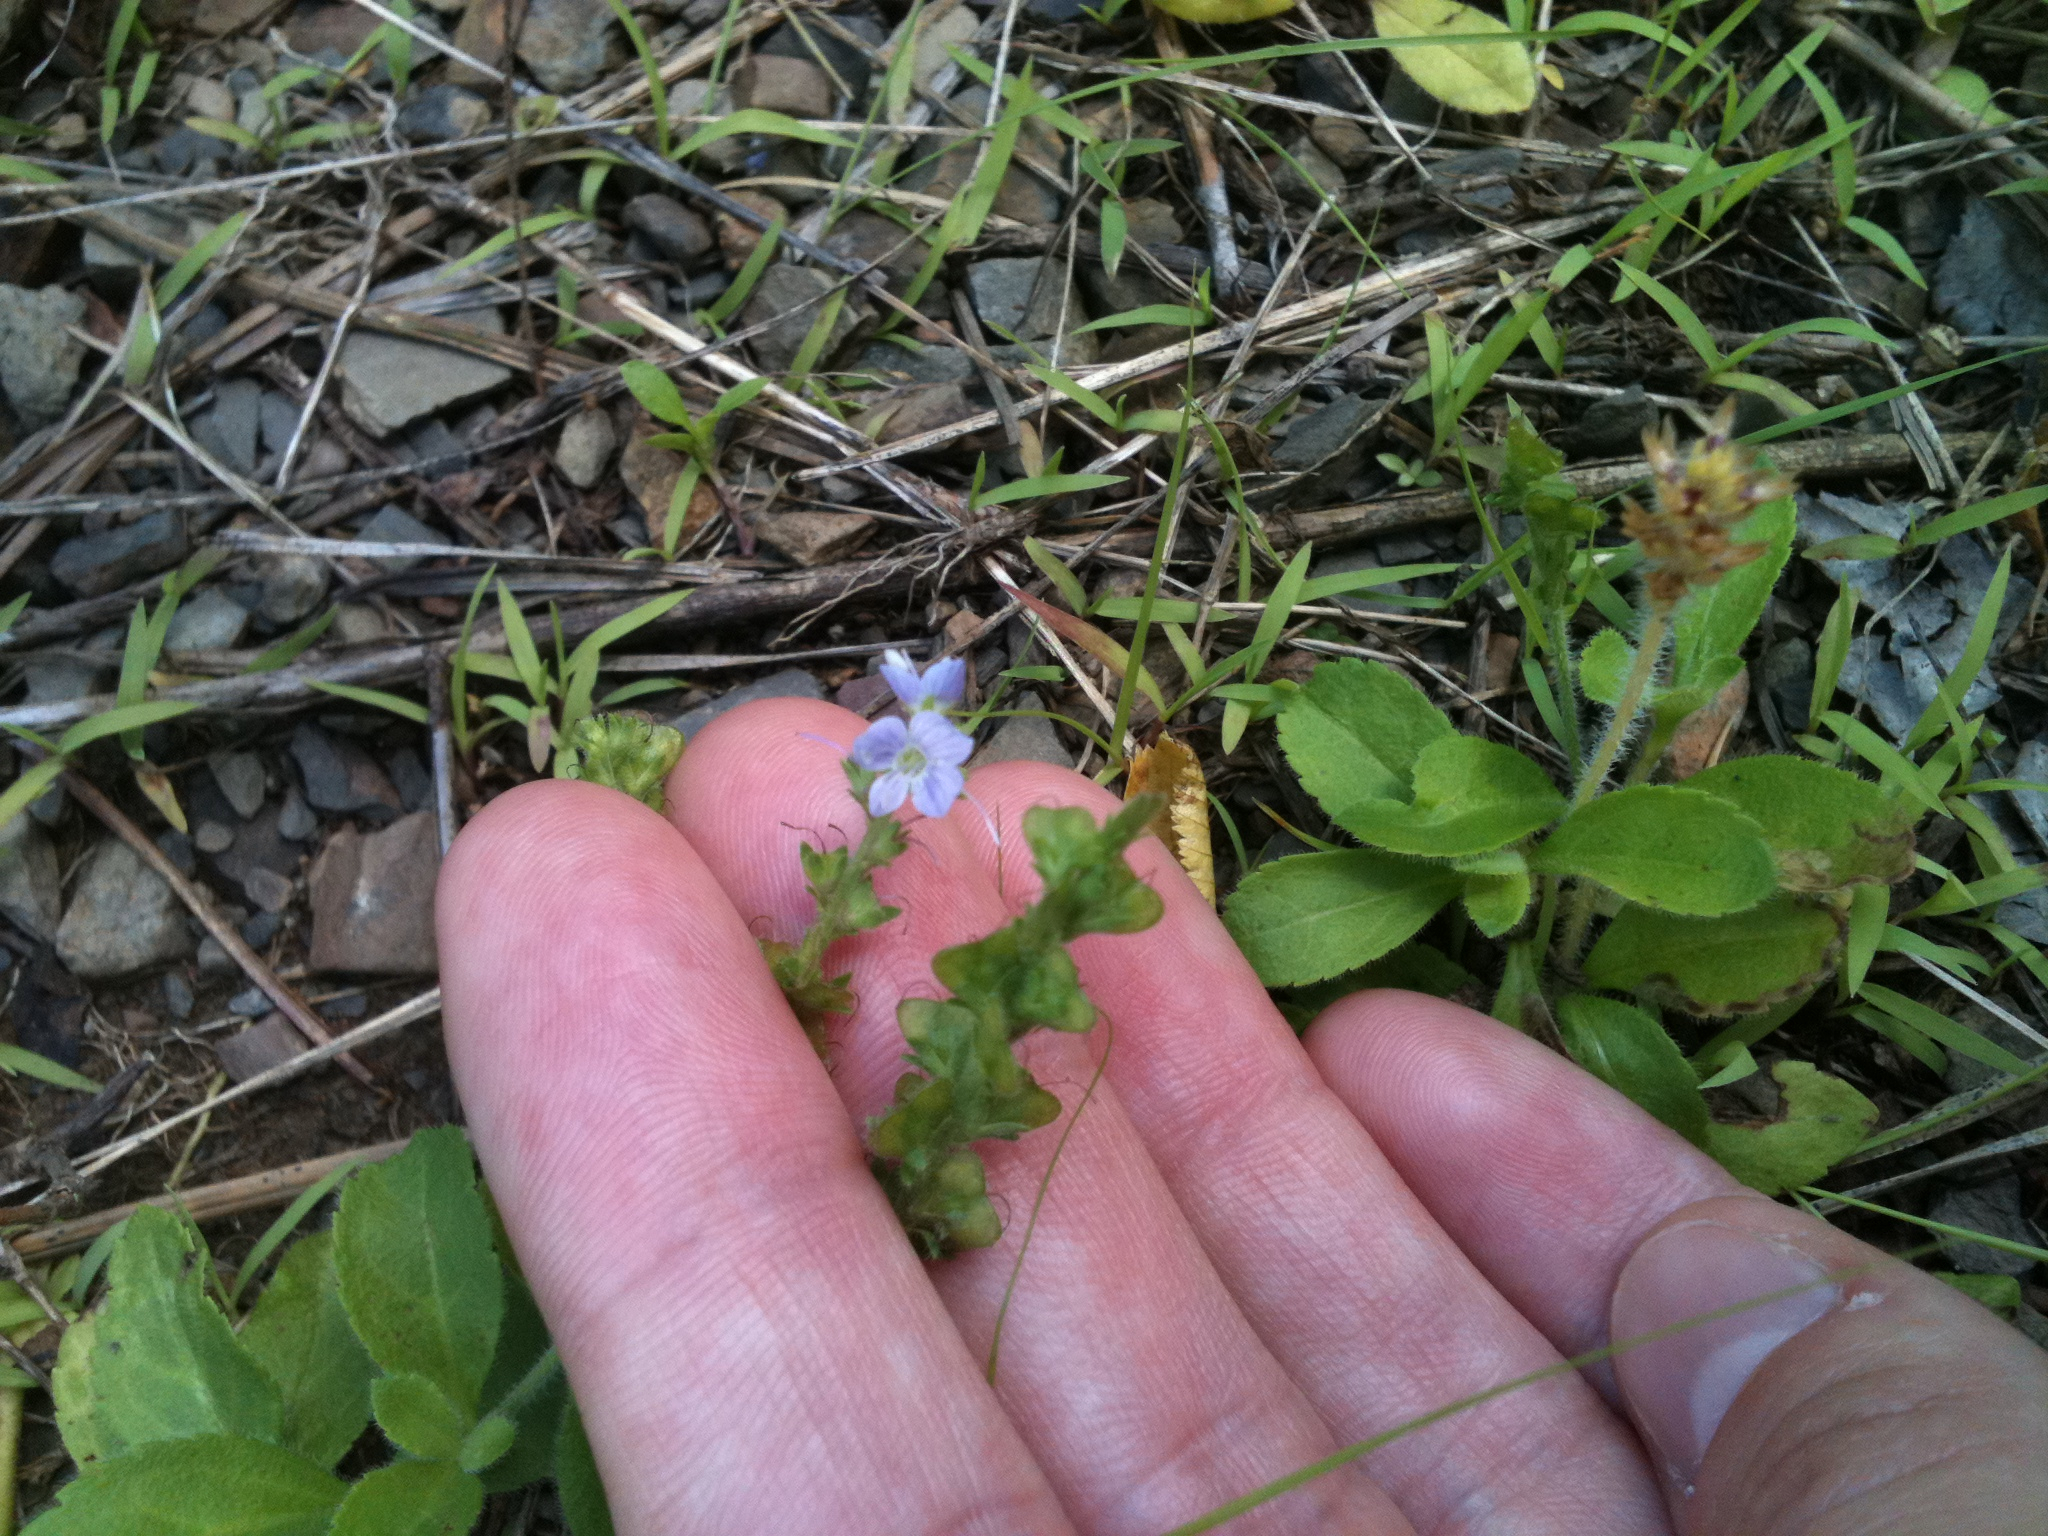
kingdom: Plantae
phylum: Tracheophyta
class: Magnoliopsida
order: Lamiales
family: Plantaginaceae
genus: Veronica
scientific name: Veronica officinalis
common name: Common speedwell
